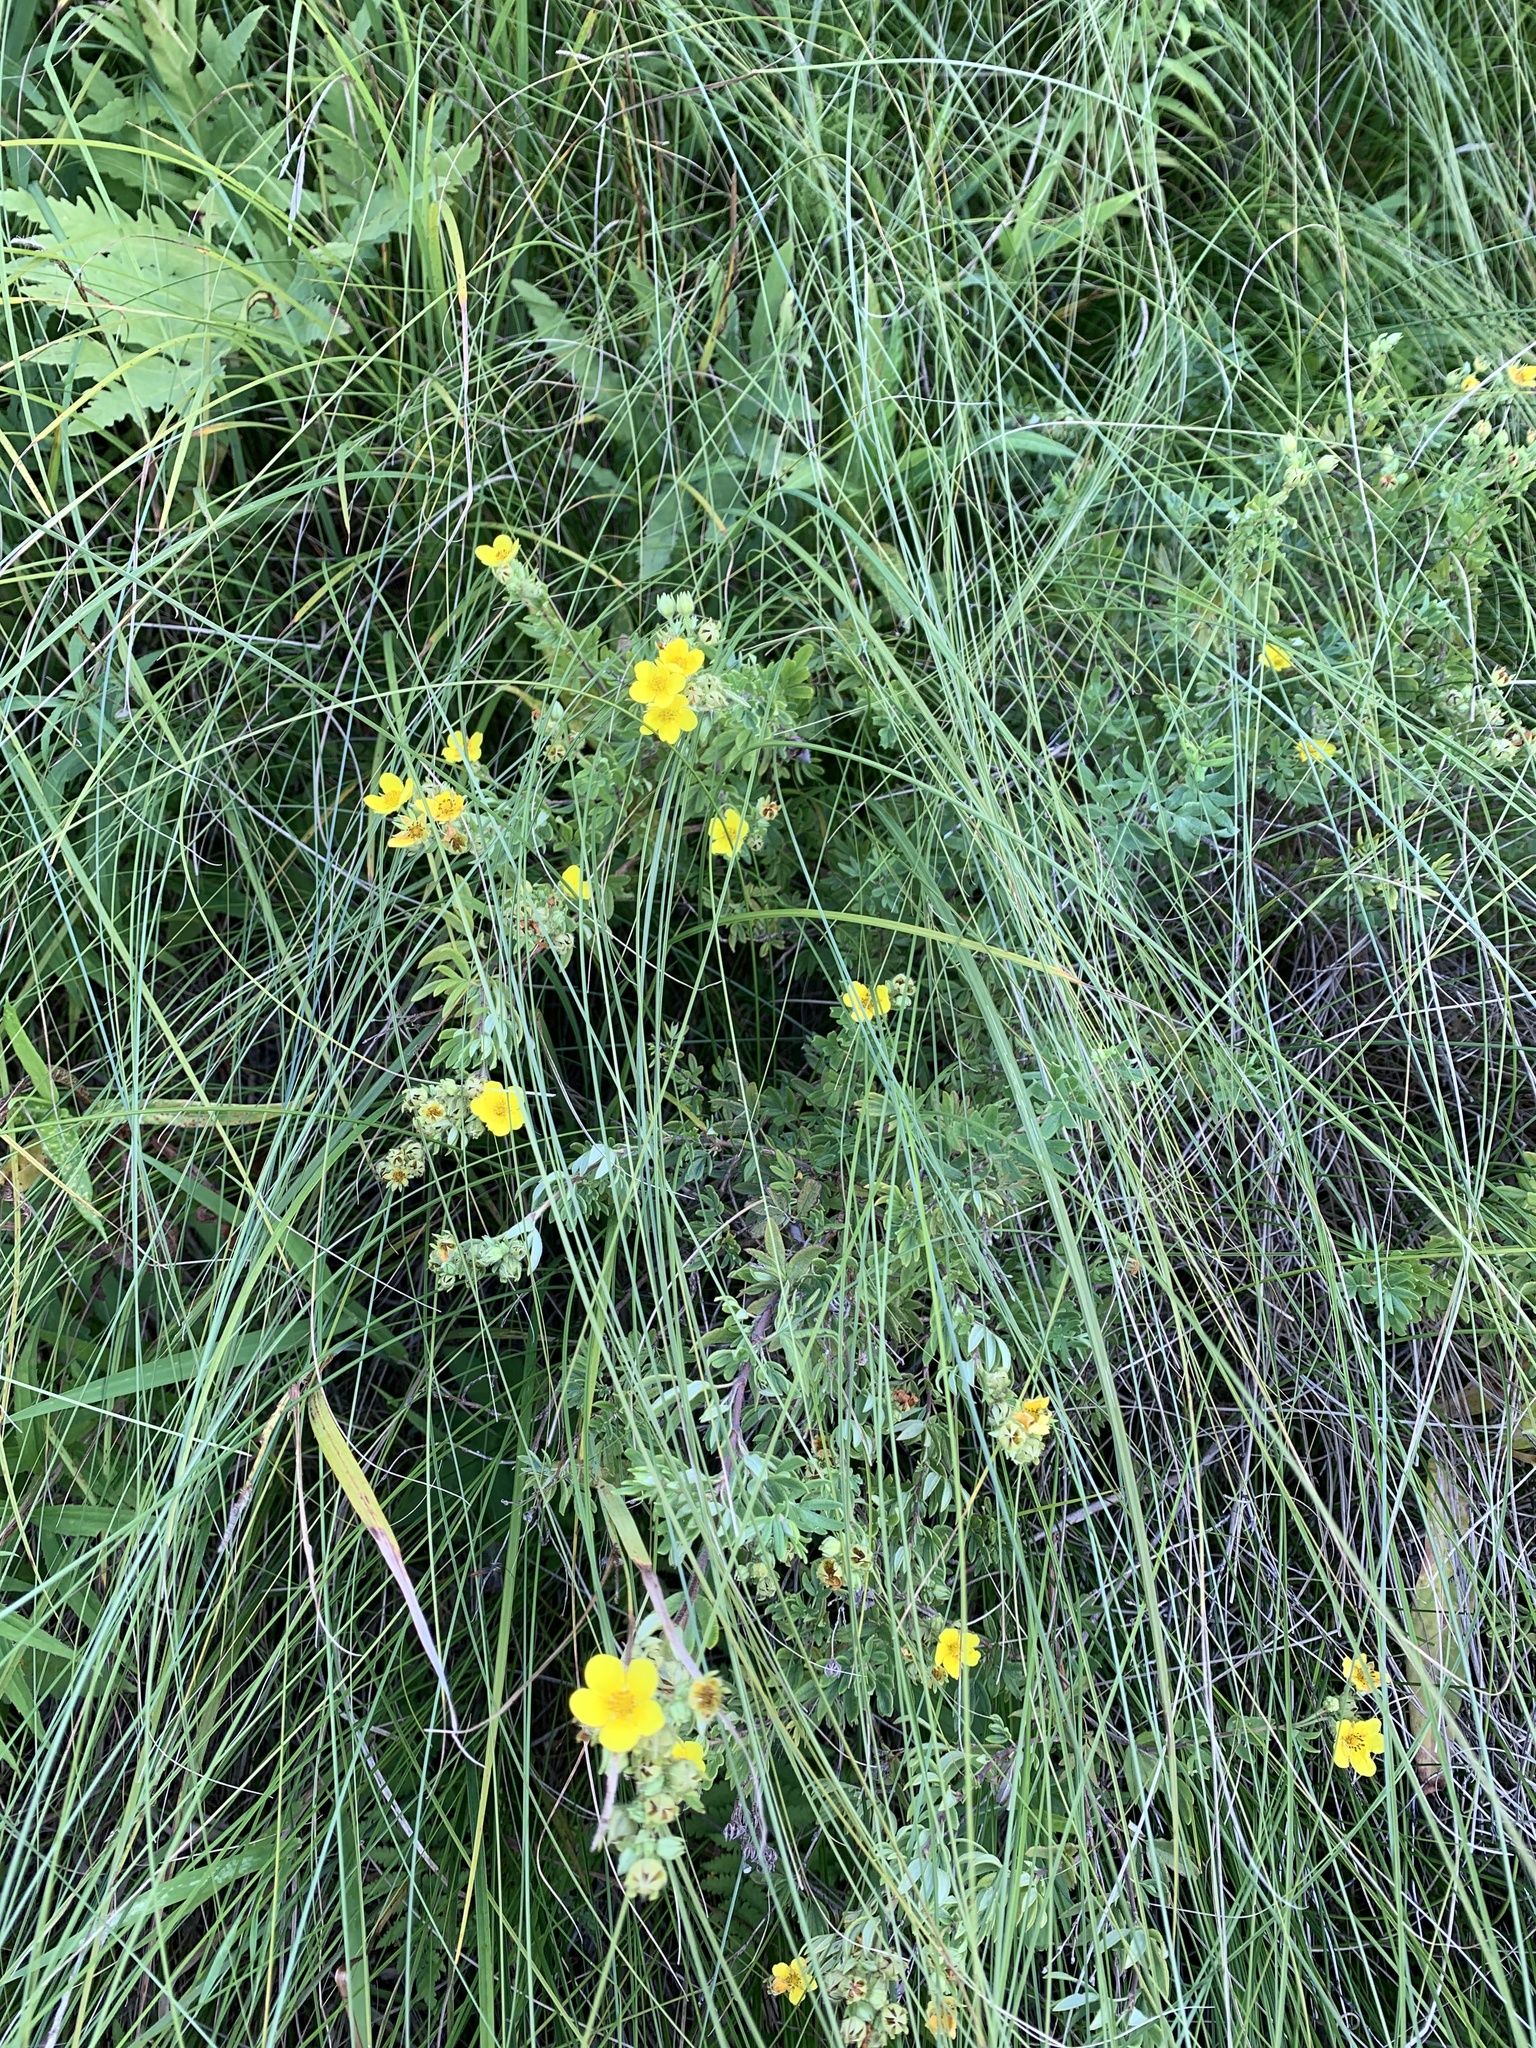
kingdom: Plantae
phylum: Tracheophyta
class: Magnoliopsida
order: Rosales
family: Rosaceae
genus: Dasiphora
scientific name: Dasiphora fruticosa
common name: Shrubby cinquefoil
